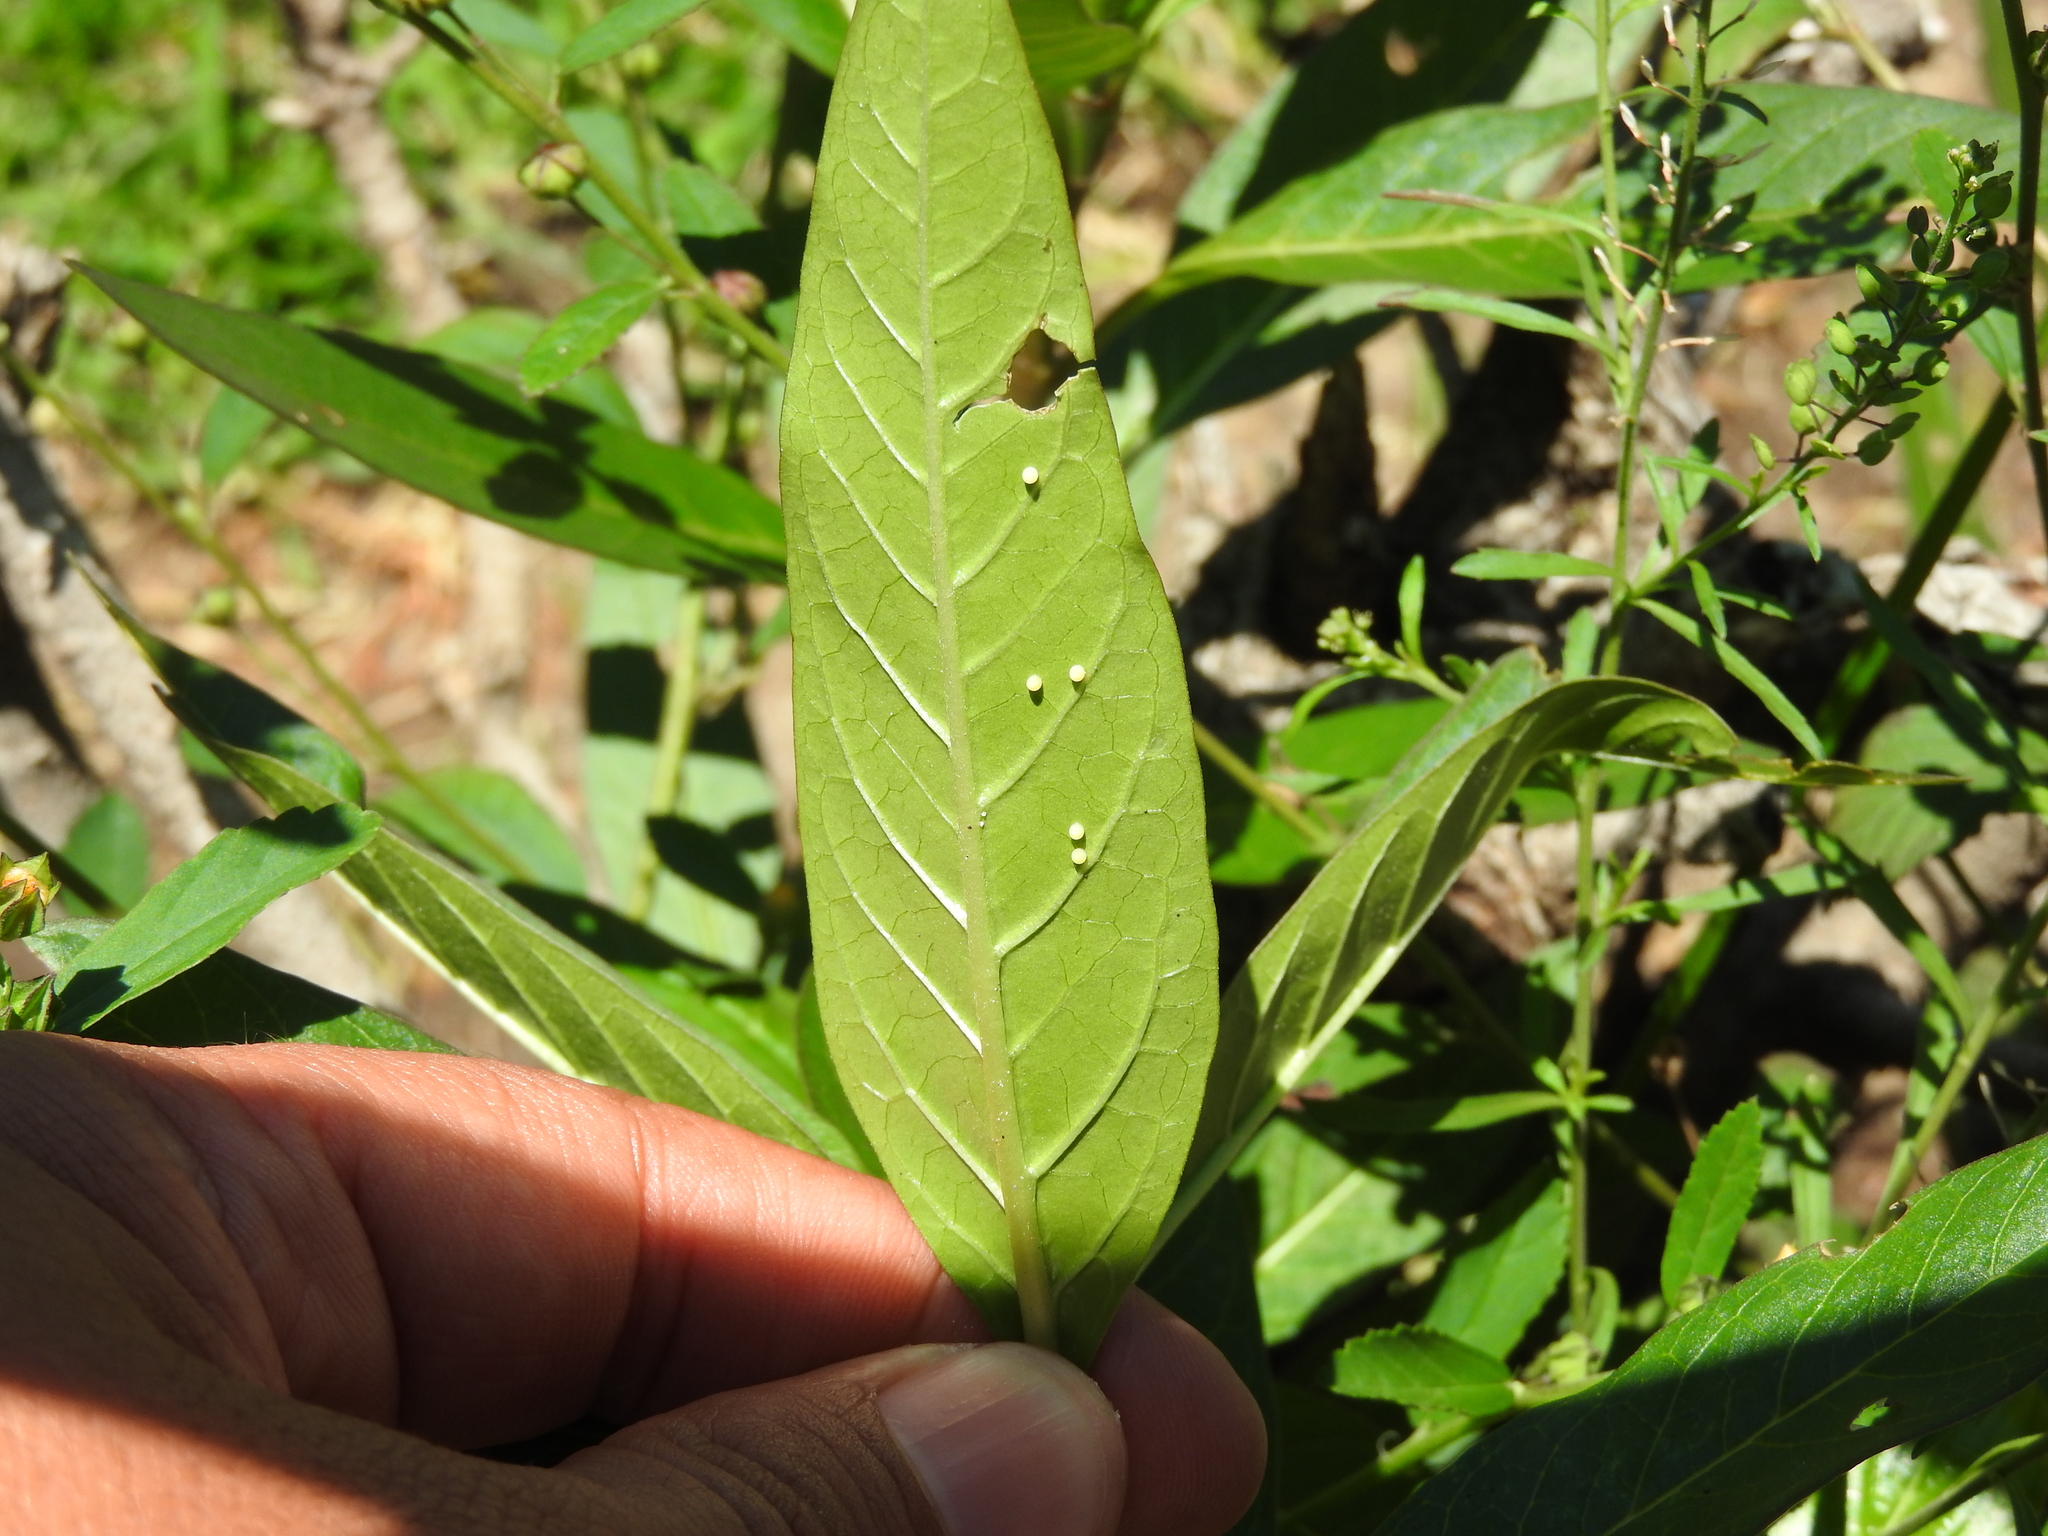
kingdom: Animalia
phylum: Arthropoda
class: Insecta
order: Lepidoptera
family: Nymphalidae
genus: Danaus
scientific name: Danaus plexippus
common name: Monarch
